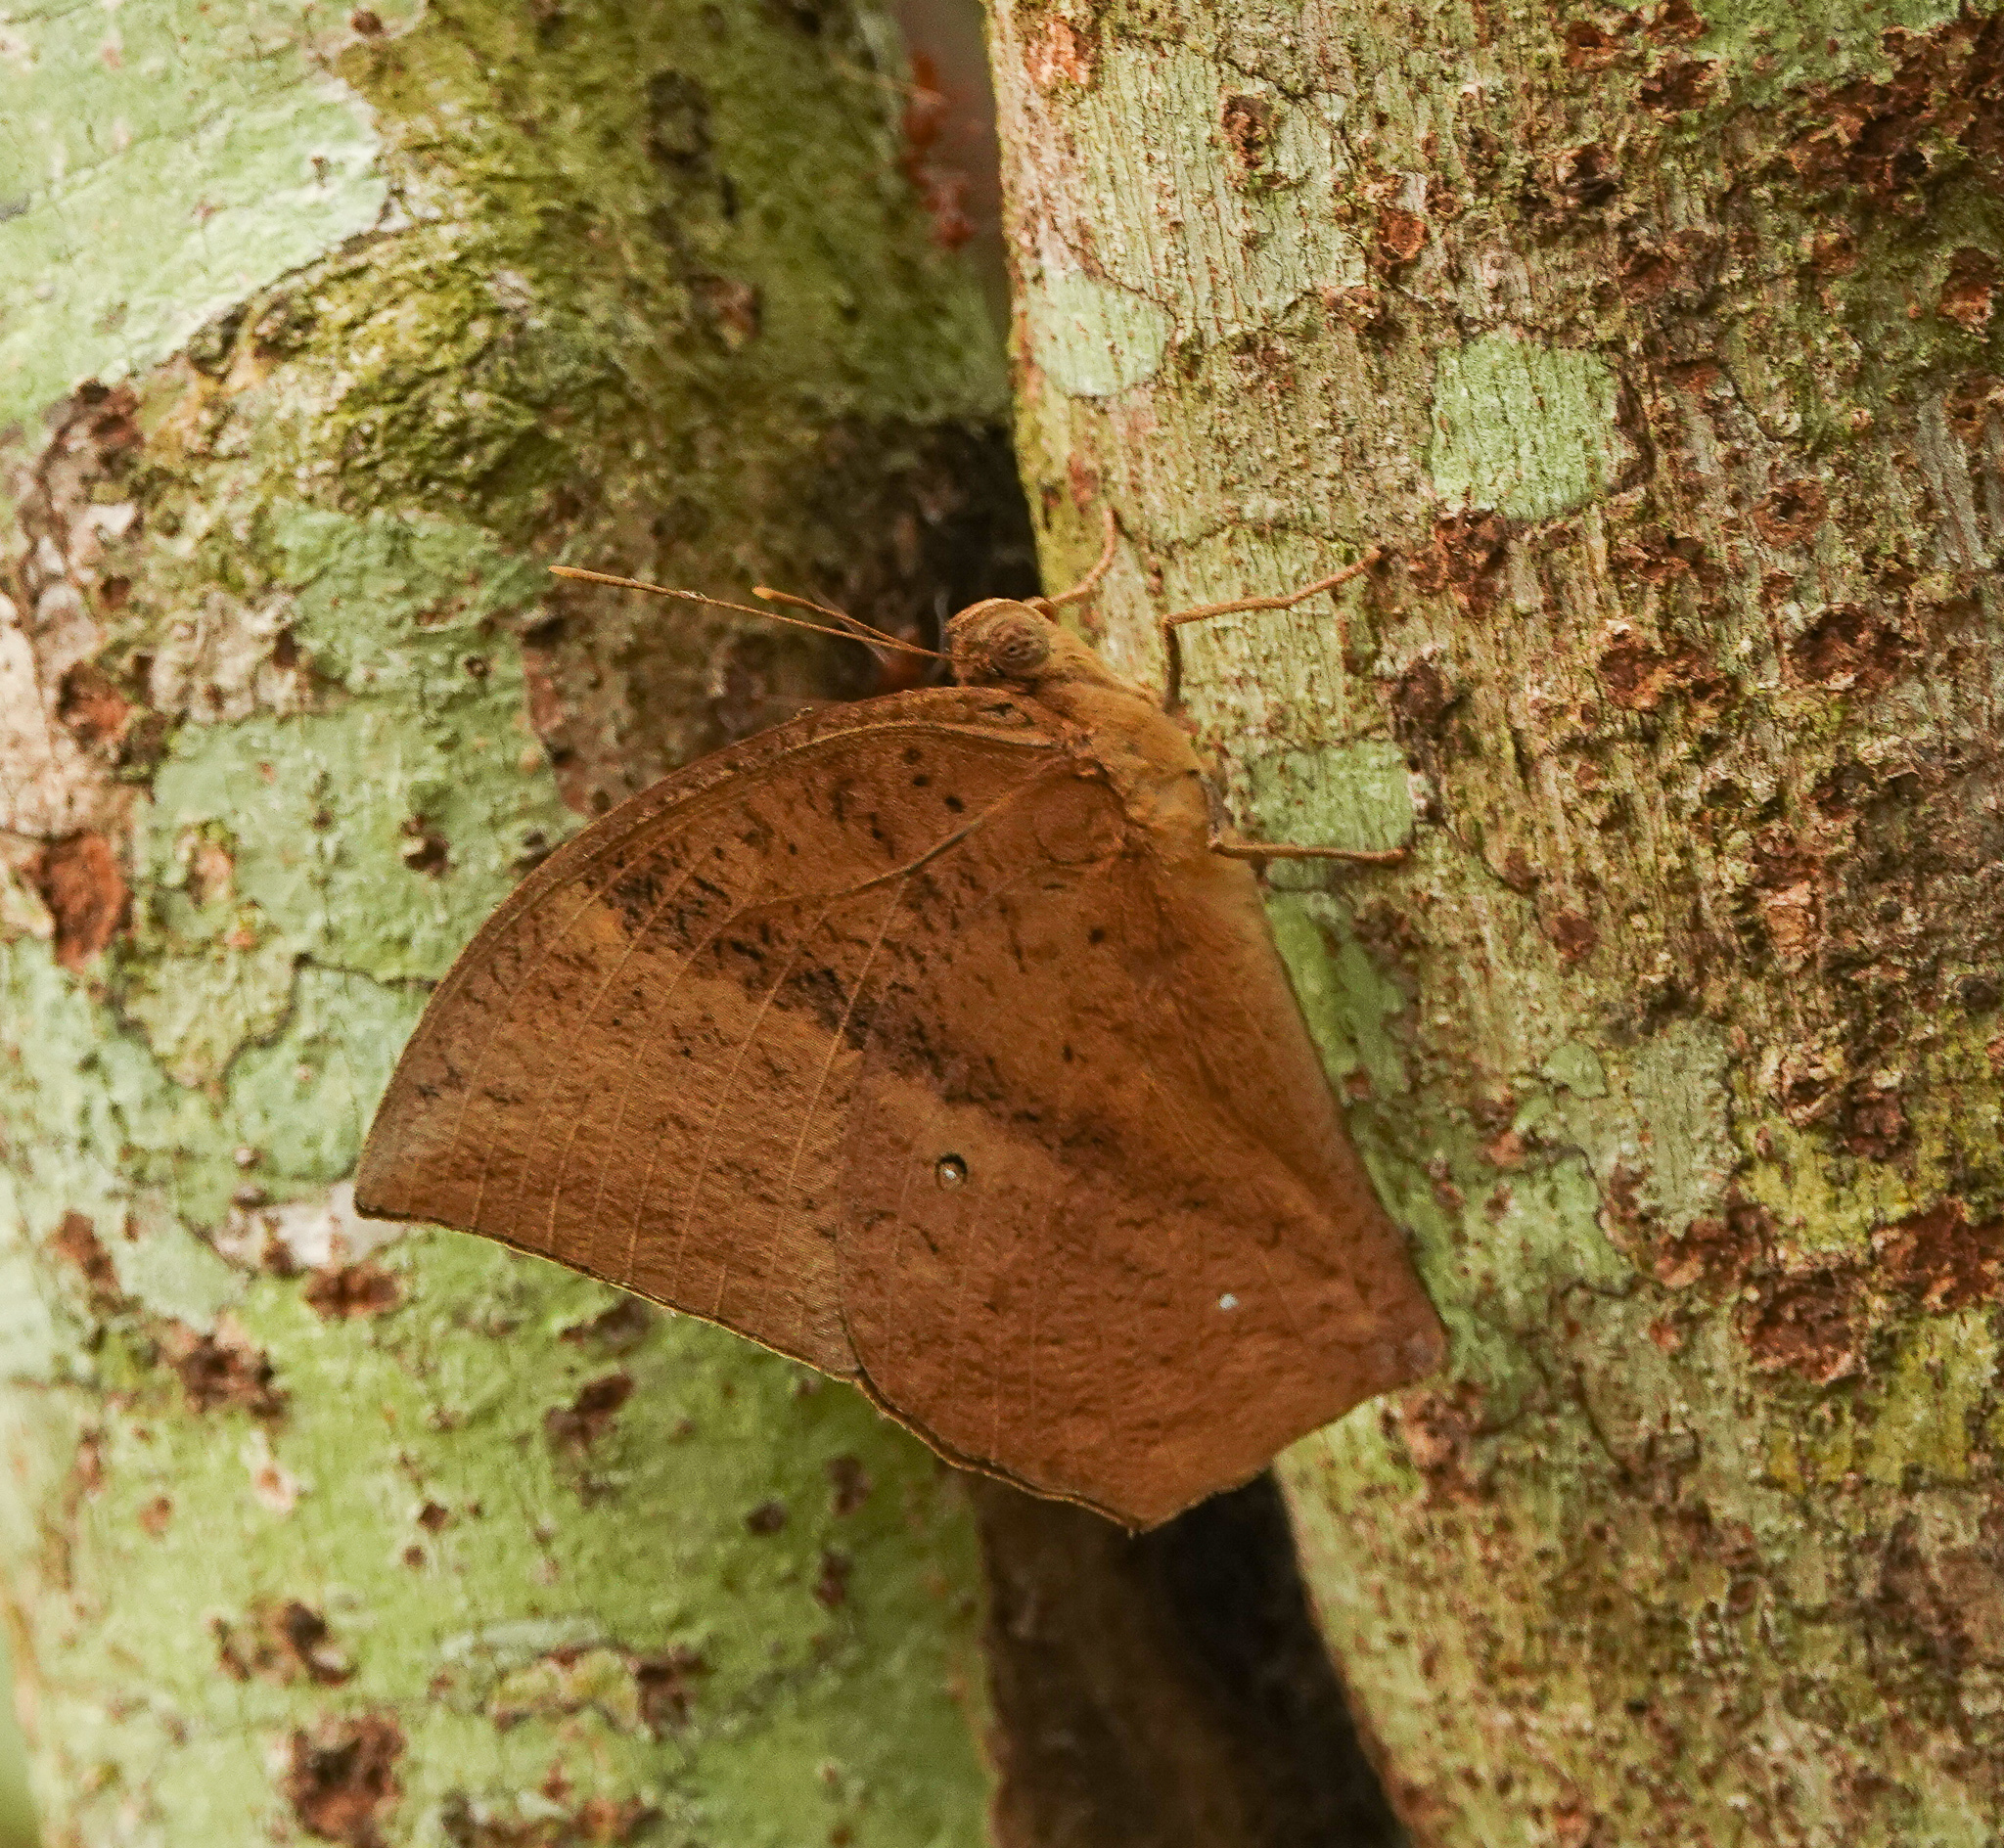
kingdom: Animalia
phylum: Arthropoda
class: Insecta
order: Lepidoptera
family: Nymphalidae
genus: Discophora
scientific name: Discophora sondaica
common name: Common duffer
